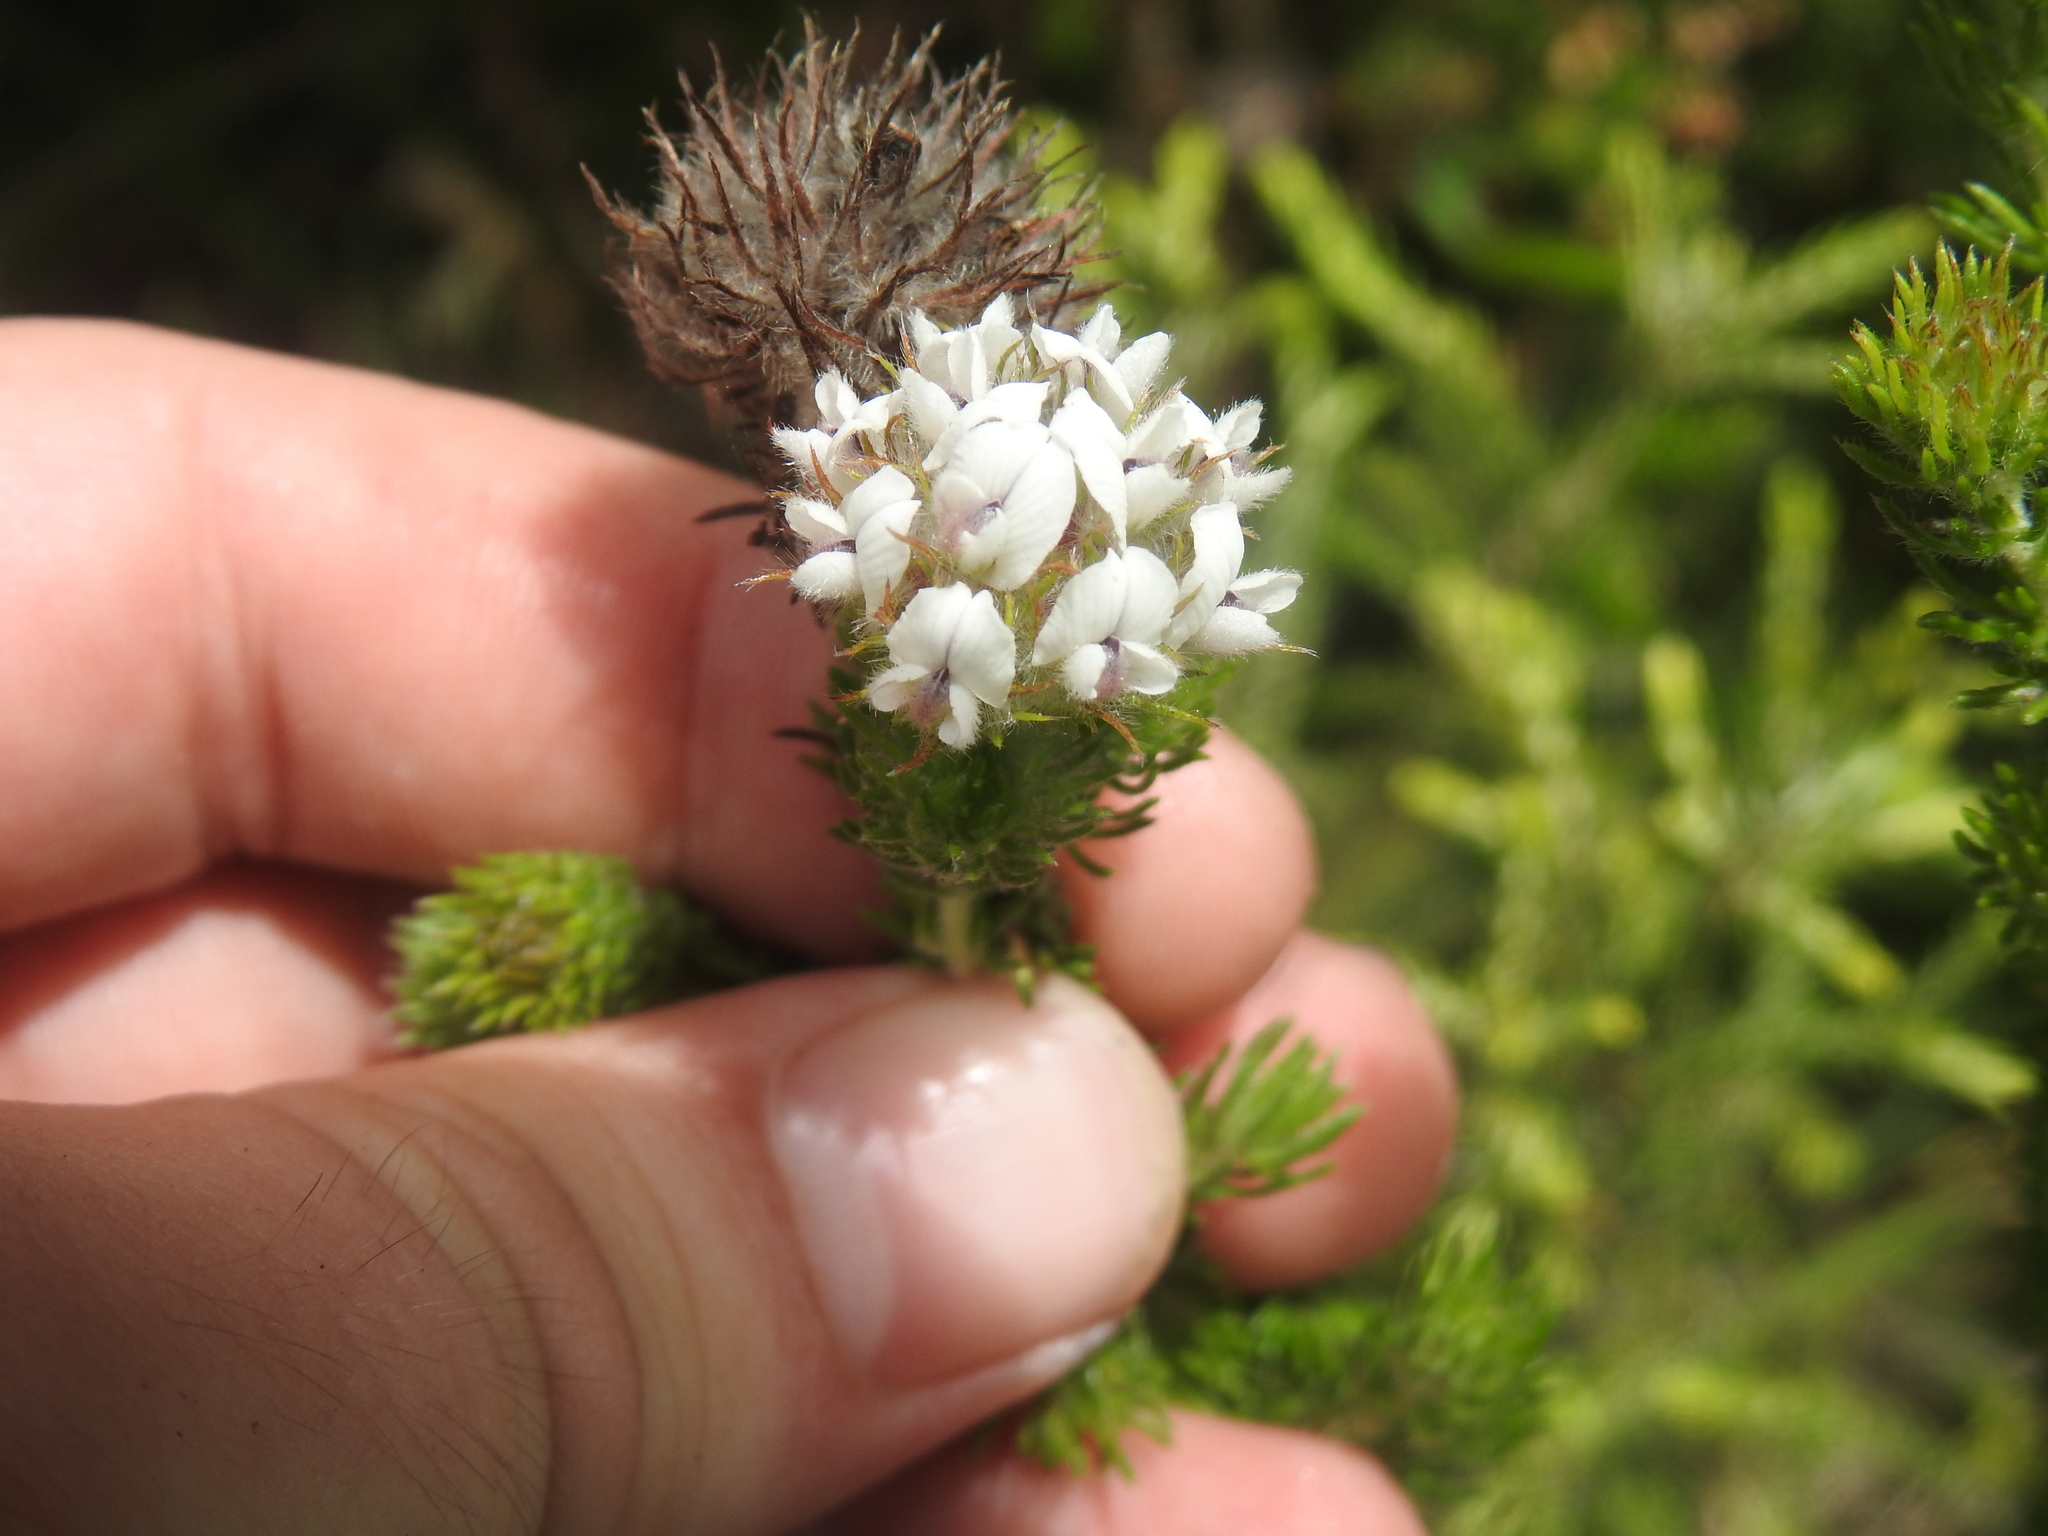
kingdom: Plantae
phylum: Tracheophyta
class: Magnoliopsida
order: Fabales
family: Fabaceae
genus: Aspalathus
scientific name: Aspalathus cerrhantha
